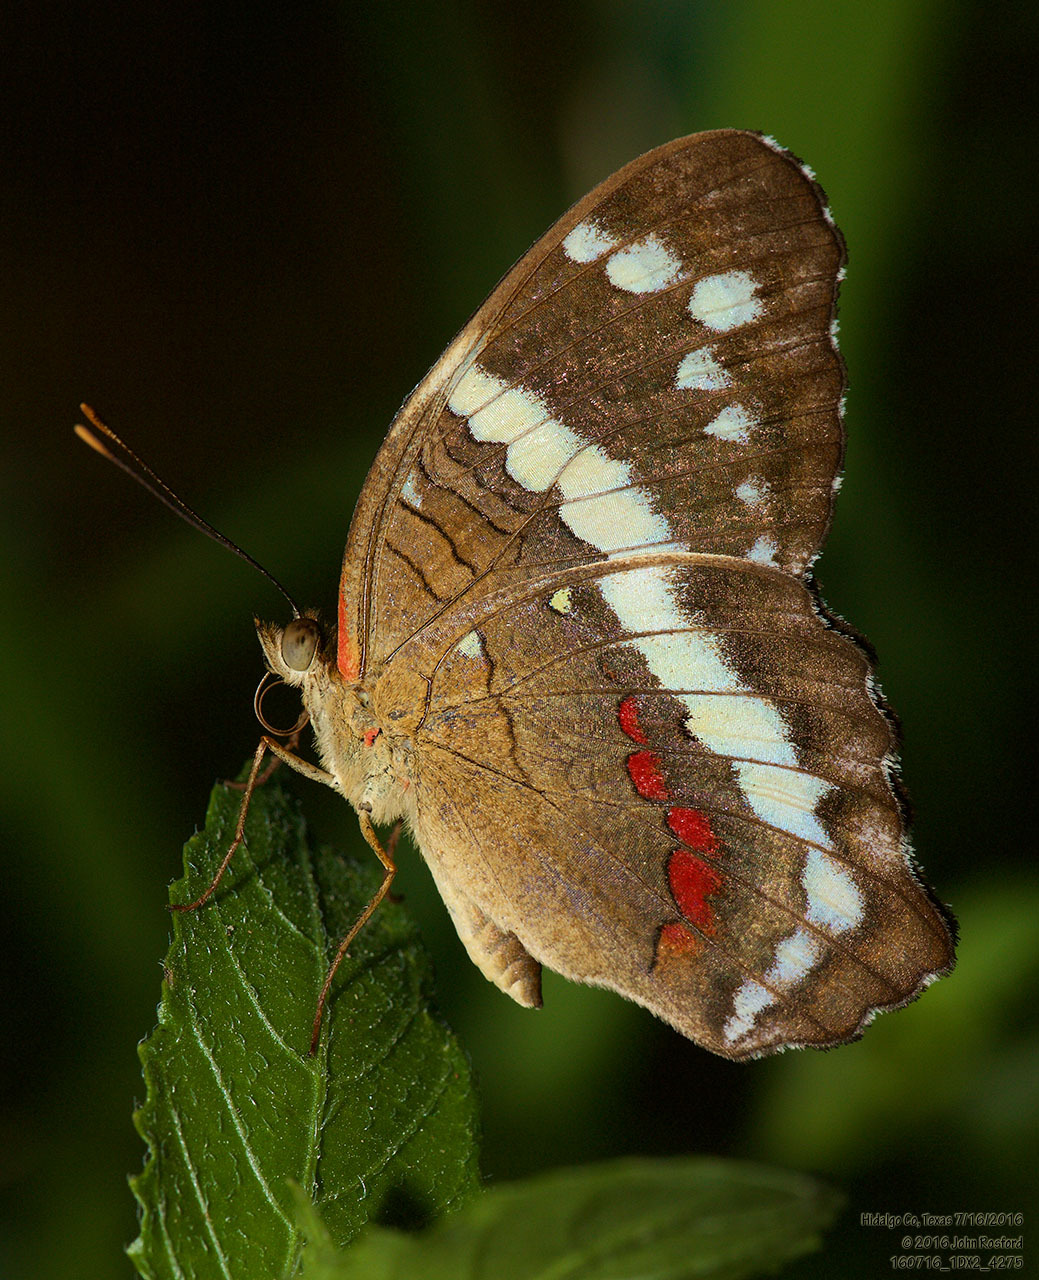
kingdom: Animalia
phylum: Arthropoda
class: Insecta
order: Lepidoptera
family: Nymphalidae
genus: Anartia
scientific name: Anartia fatima
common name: Banded peacock
